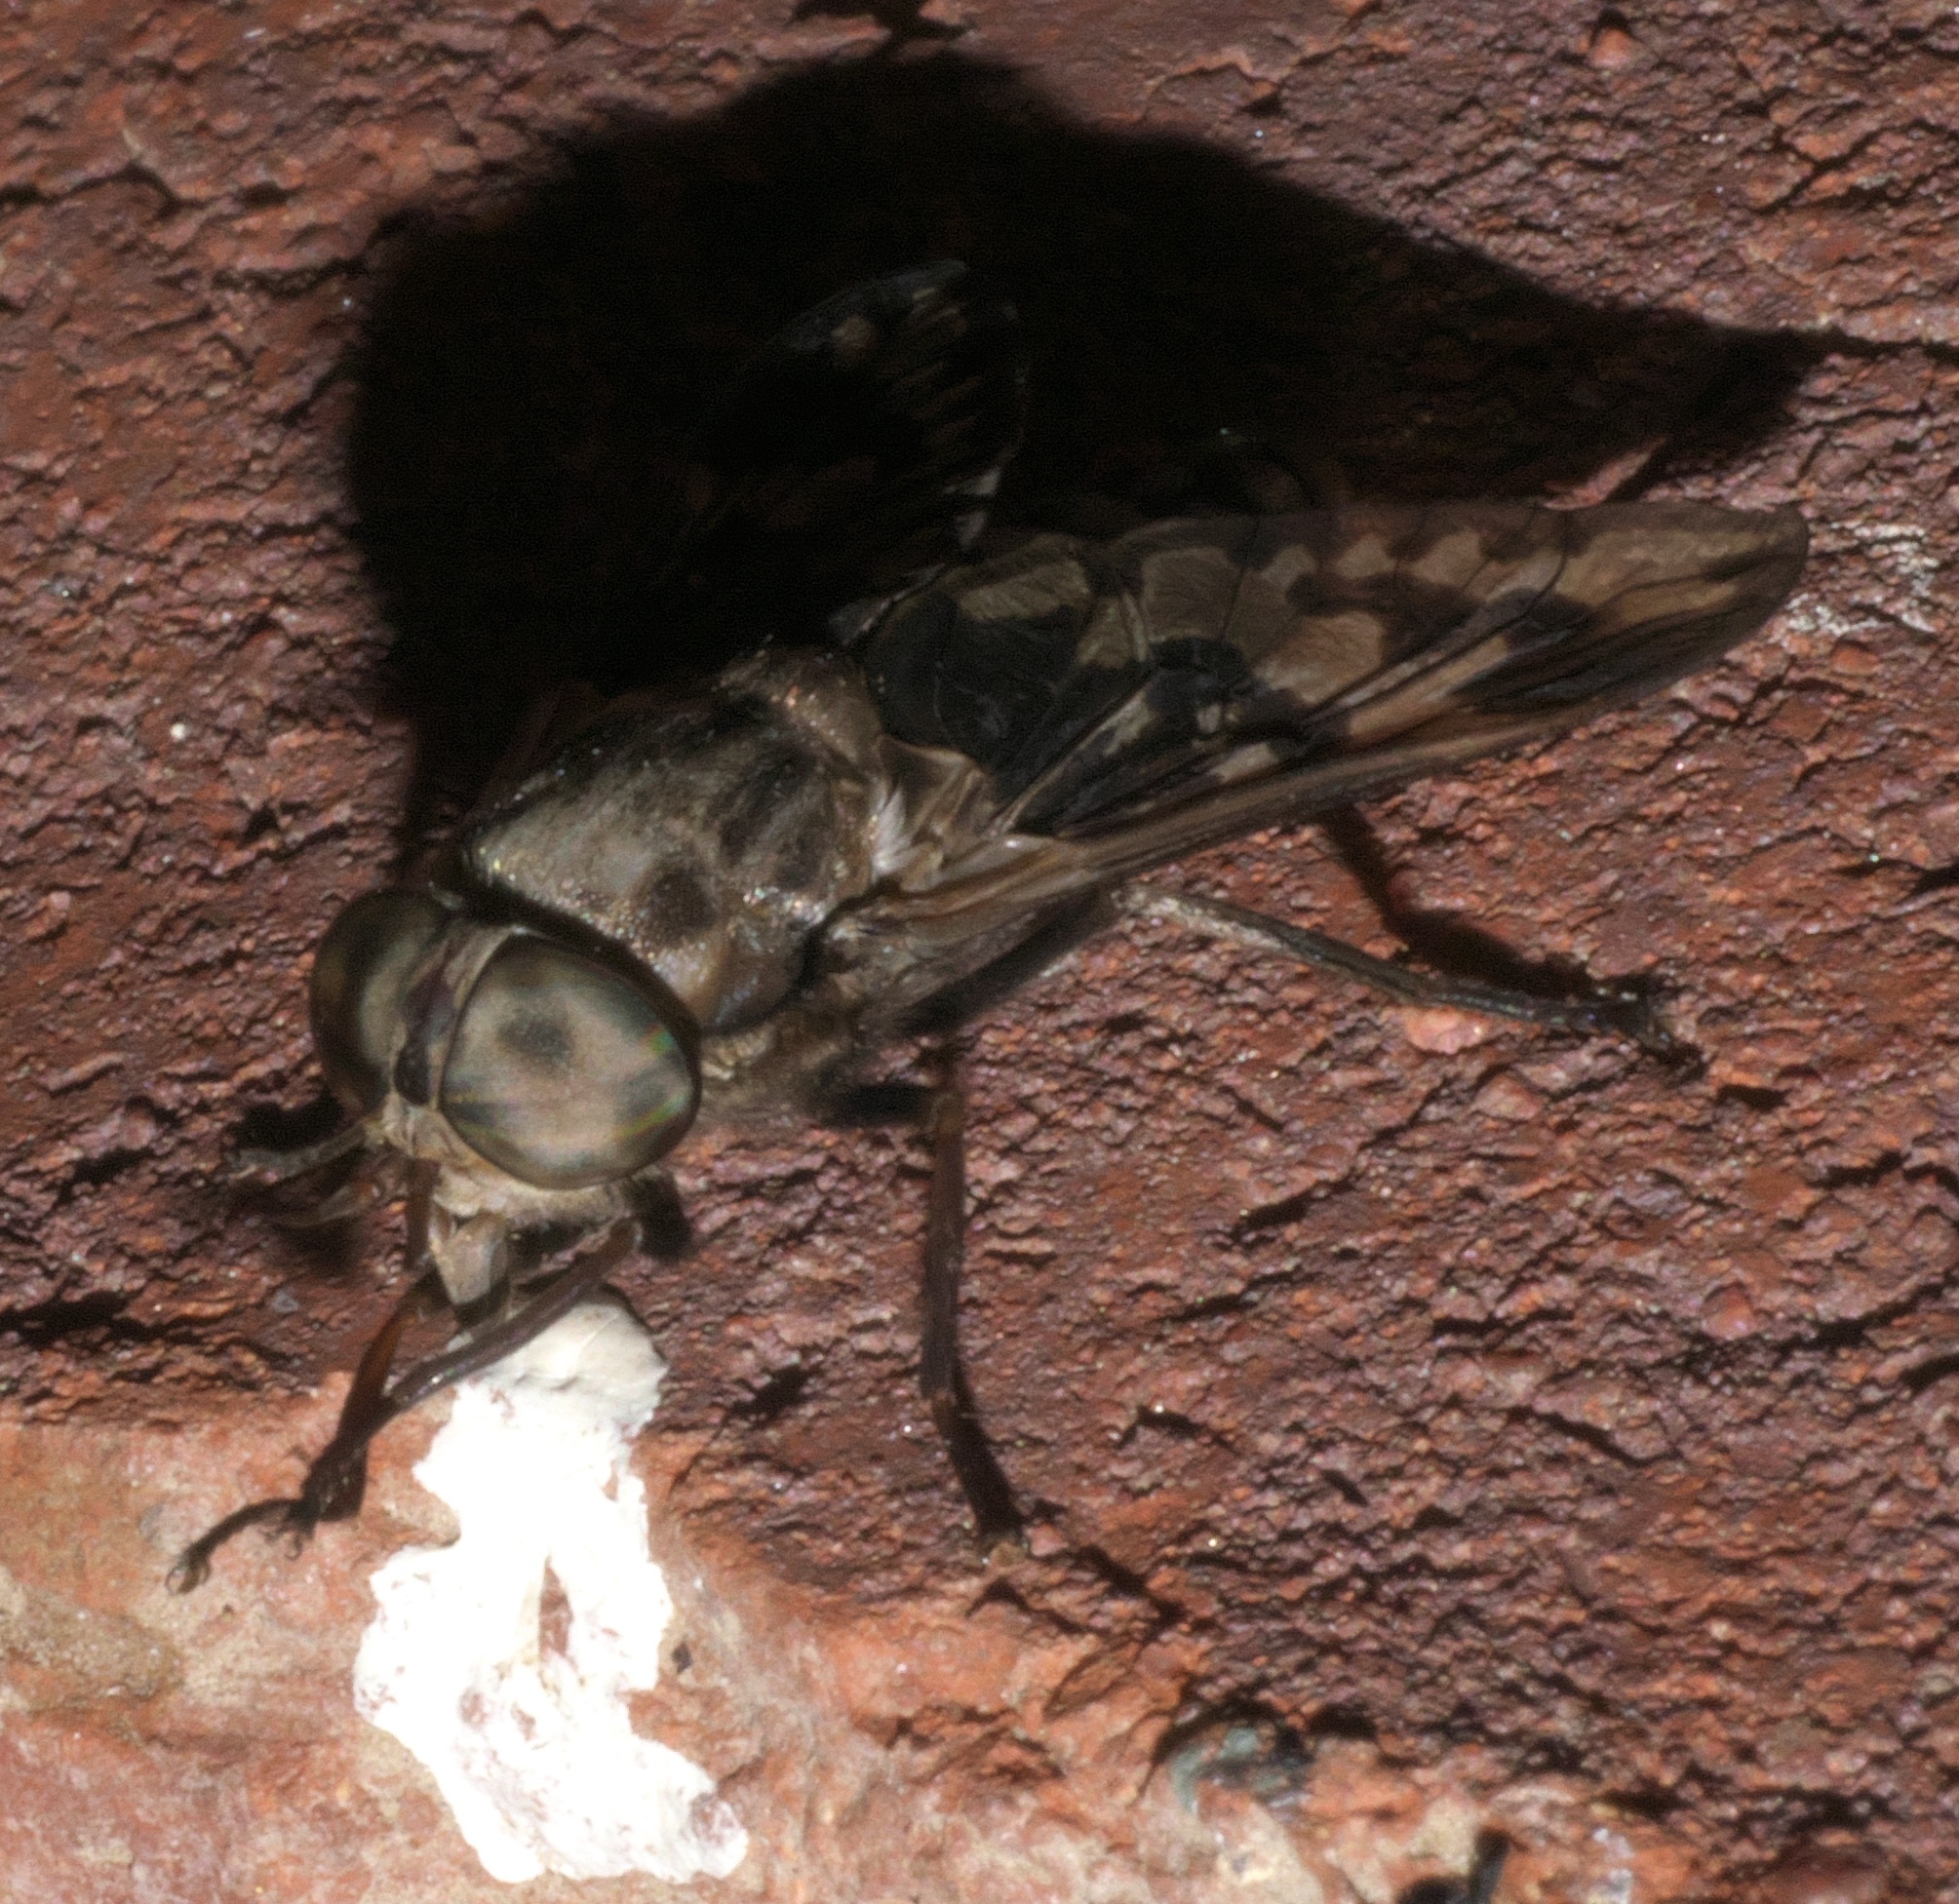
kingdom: Animalia
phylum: Arthropoda
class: Insecta
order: Diptera
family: Tabanidae
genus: Tabanus
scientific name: Tabanus venustus
